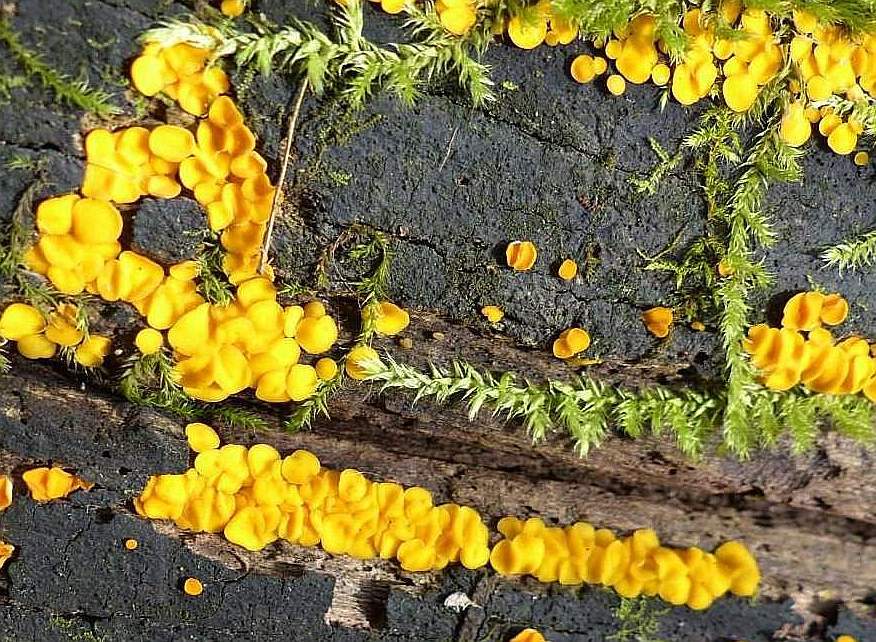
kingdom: Fungi
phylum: Ascomycota
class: Leotiomycetes
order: Helotiales
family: Pezizellaceae
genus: Calycina
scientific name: Calycina citrina
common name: Yellow fairy cups
